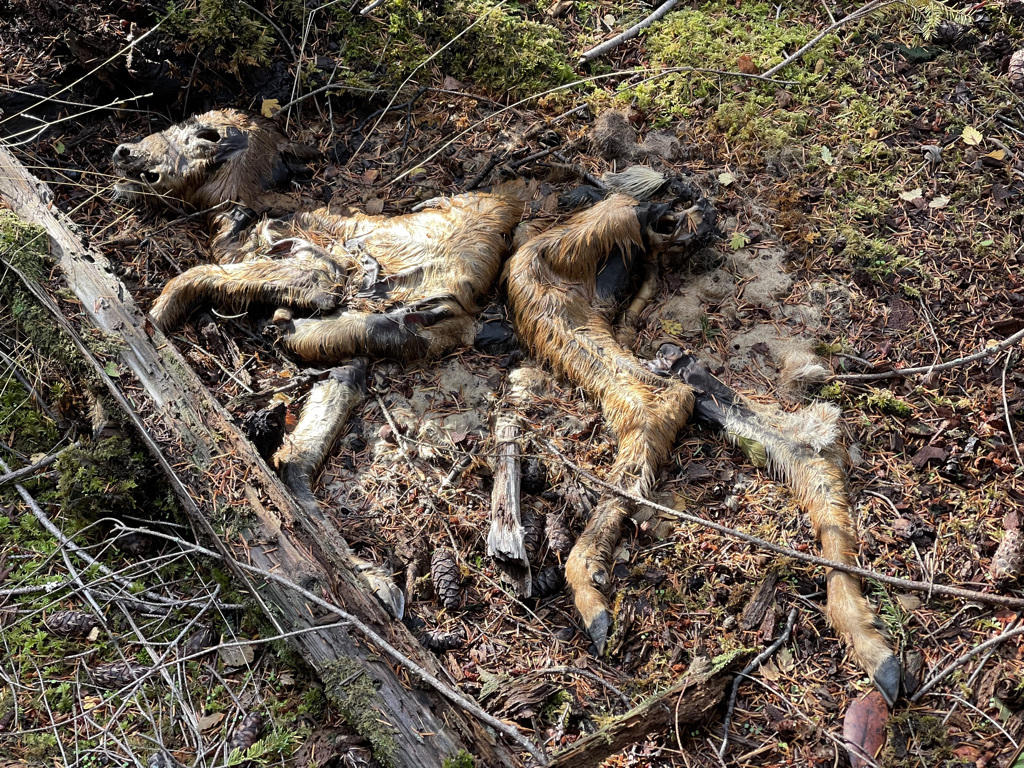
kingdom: Animalia
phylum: Chordata
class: Mammalia
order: Artiodactyla
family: Cervidae
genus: Odocoileus
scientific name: Odocoileus hemionus
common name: Mule deer
